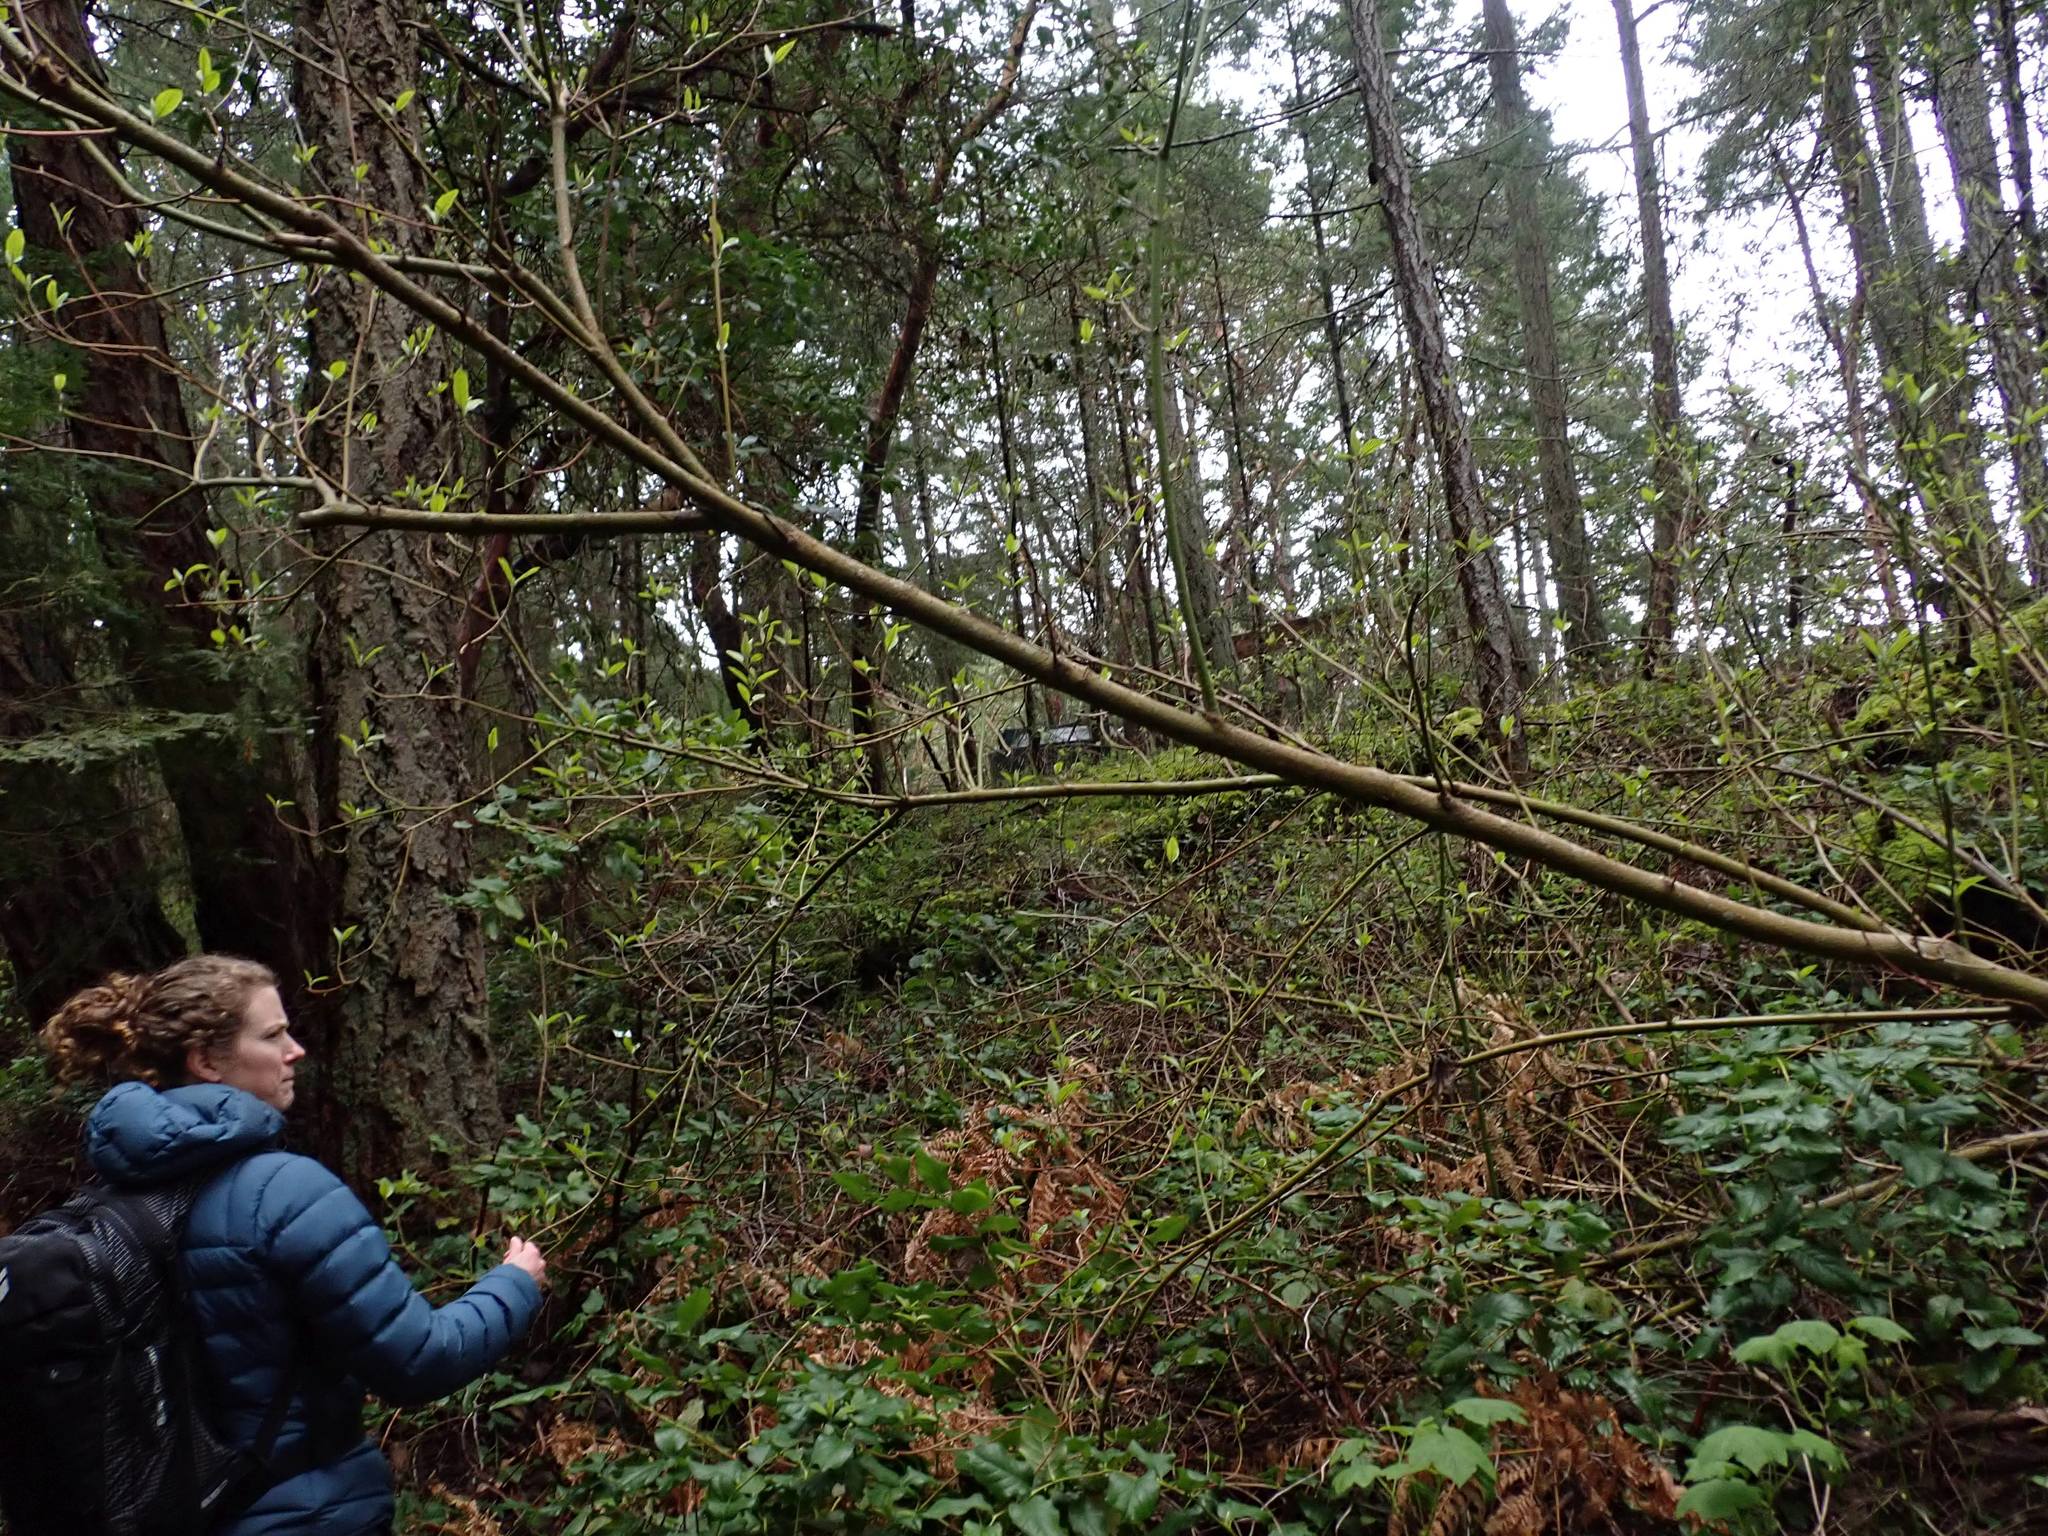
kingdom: Plantae
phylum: Tracheophyta
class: Magnoliopsida
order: Cornales
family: Cornaceae
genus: Cornus
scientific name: Cornus nuttallii
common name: Pacific dogwood
